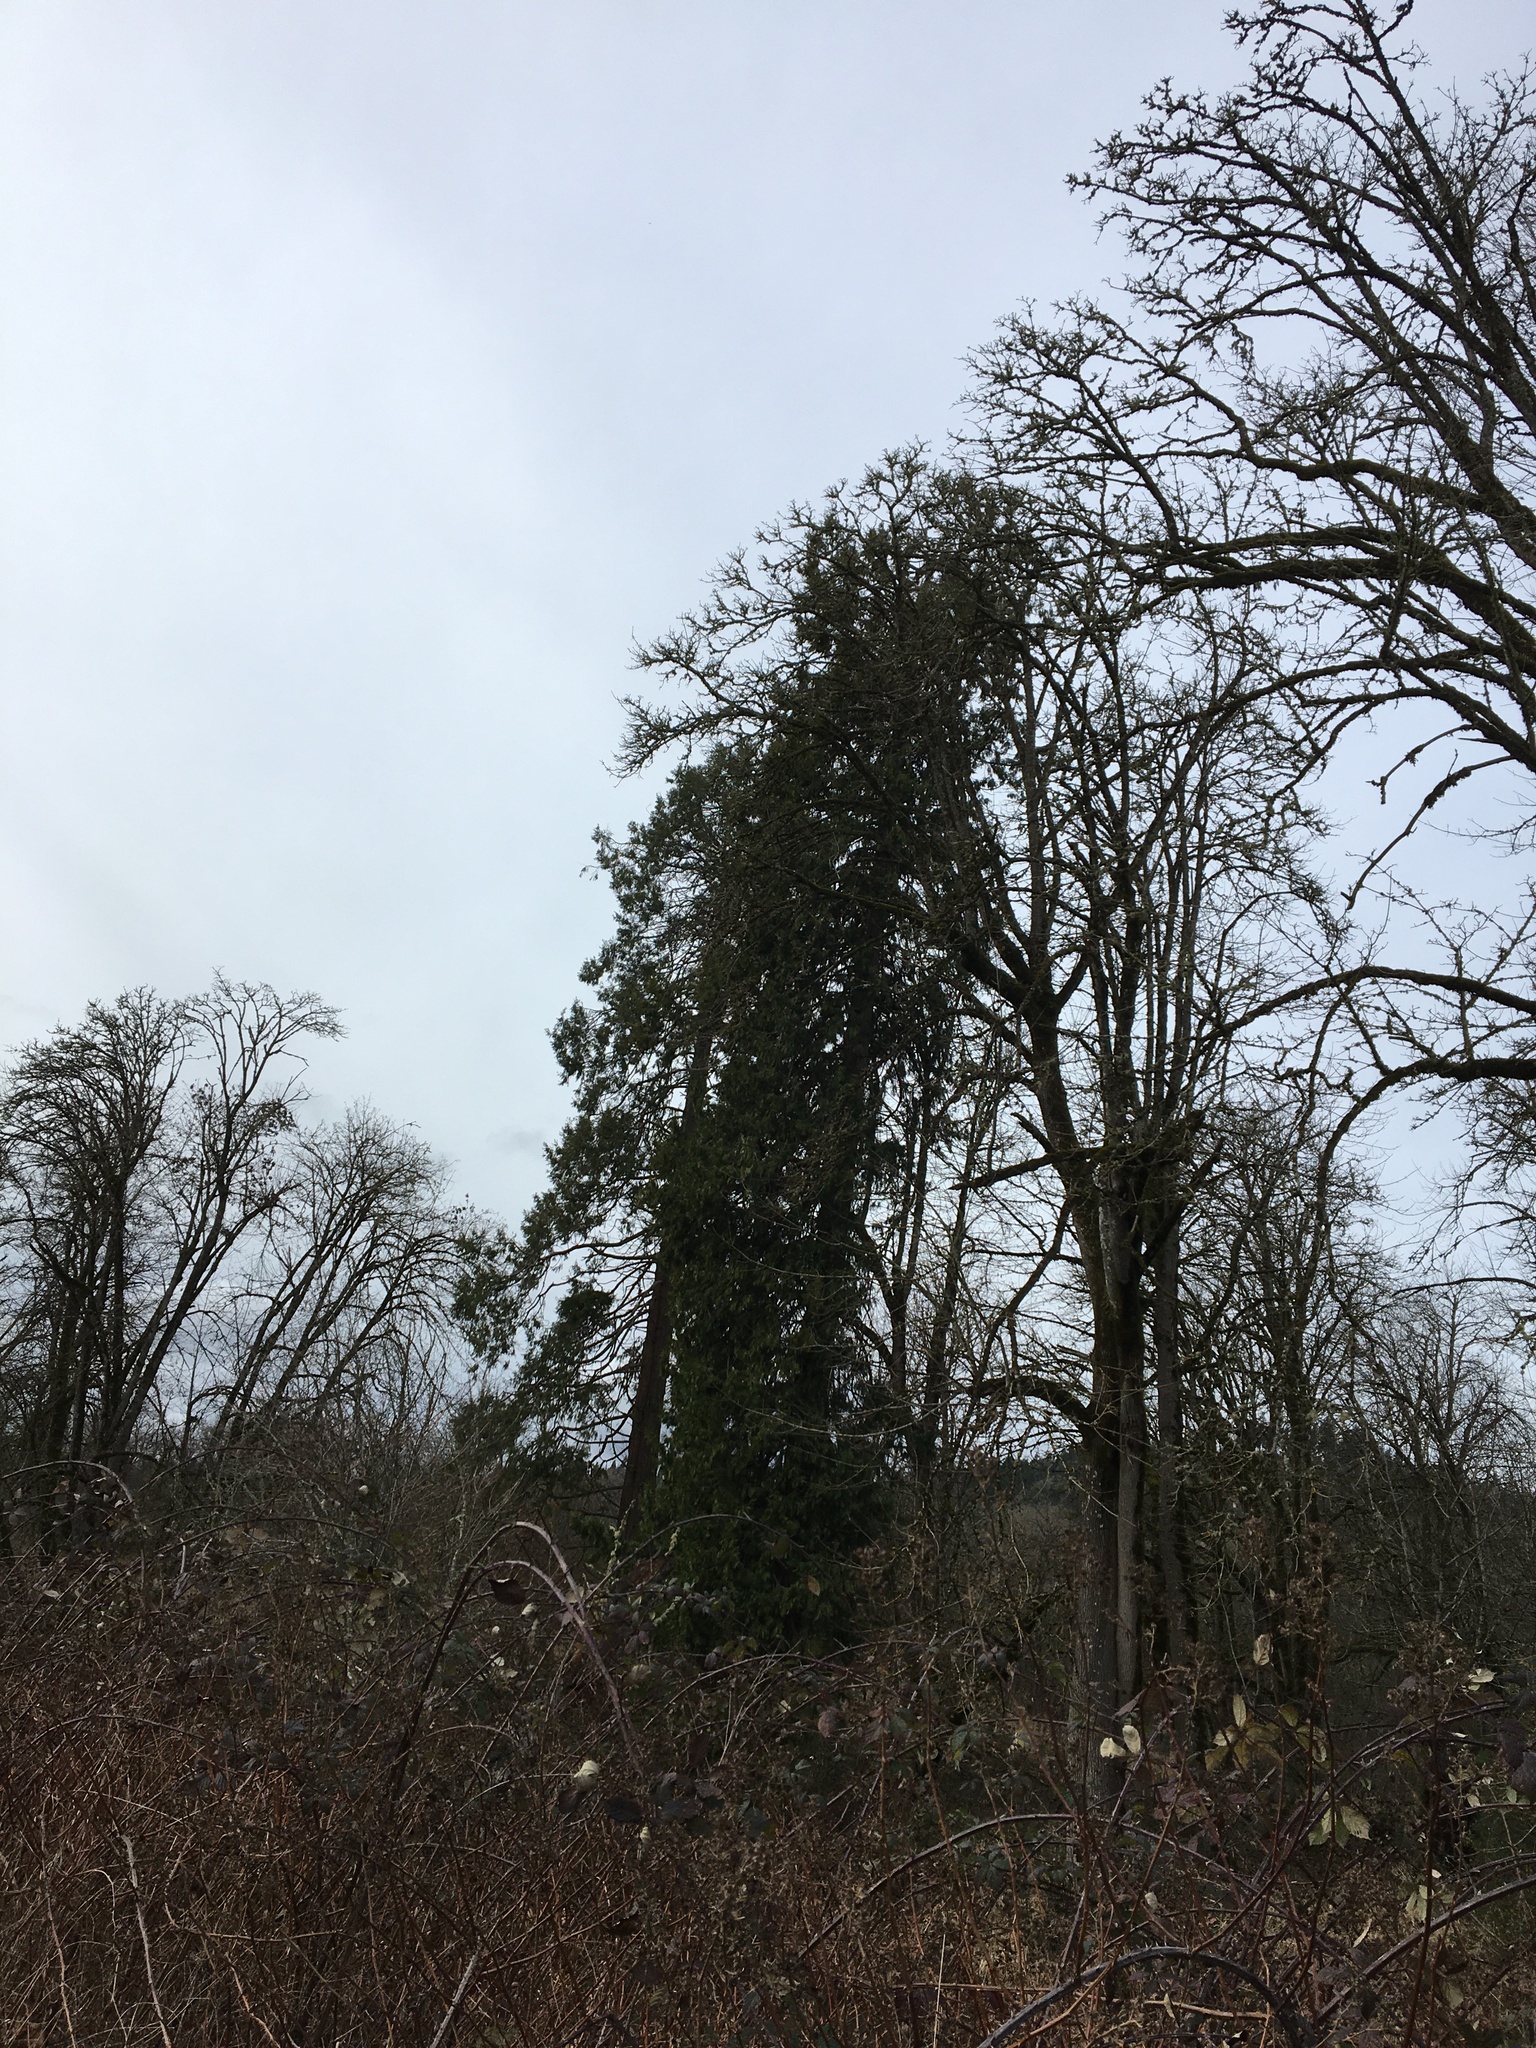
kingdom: Plantae
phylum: Tracheophyta
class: Pinopsida
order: Pinales
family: Cupressaceae
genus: Calocedrus
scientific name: Calocedrus decurrens
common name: Californian incense-cedar
